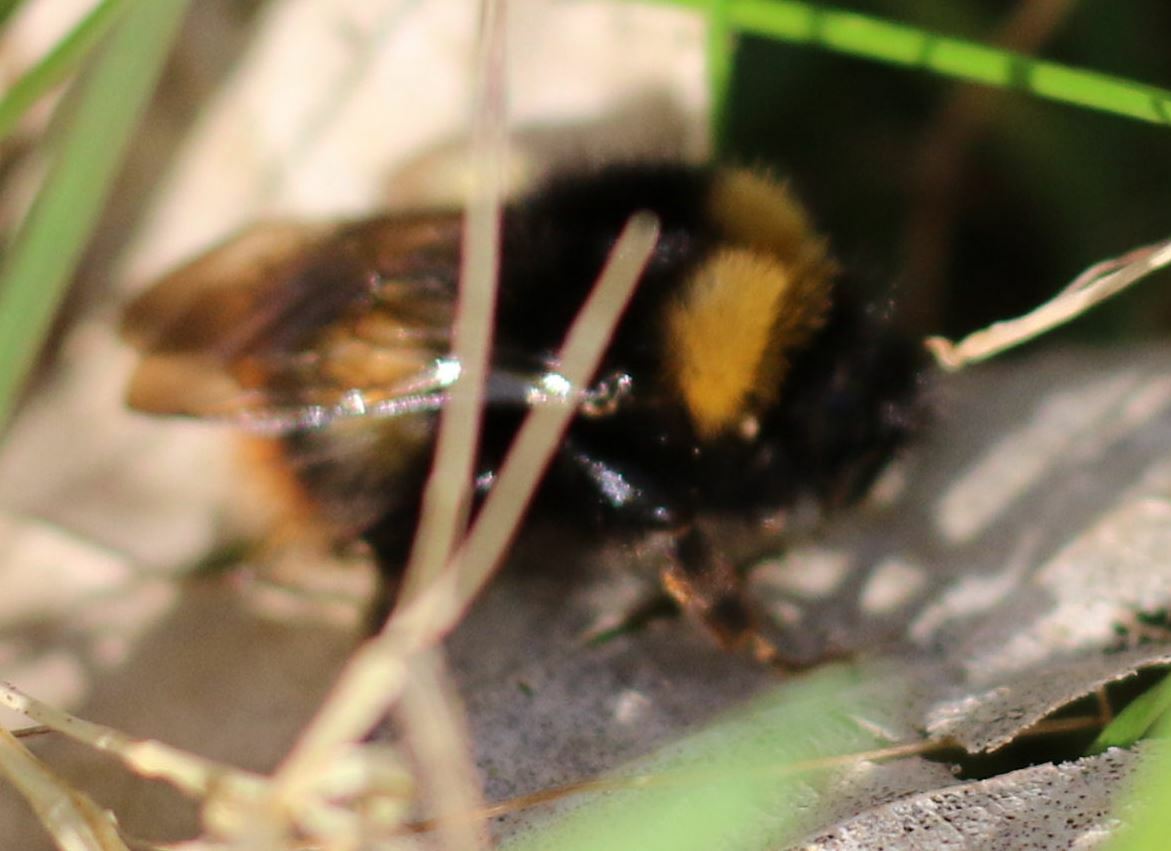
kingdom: Animalia
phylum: Arthropoda
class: Insecta
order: Hymenoptera
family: Apidae
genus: Bombus
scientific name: Bombus pratorum
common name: Early humble-bee
